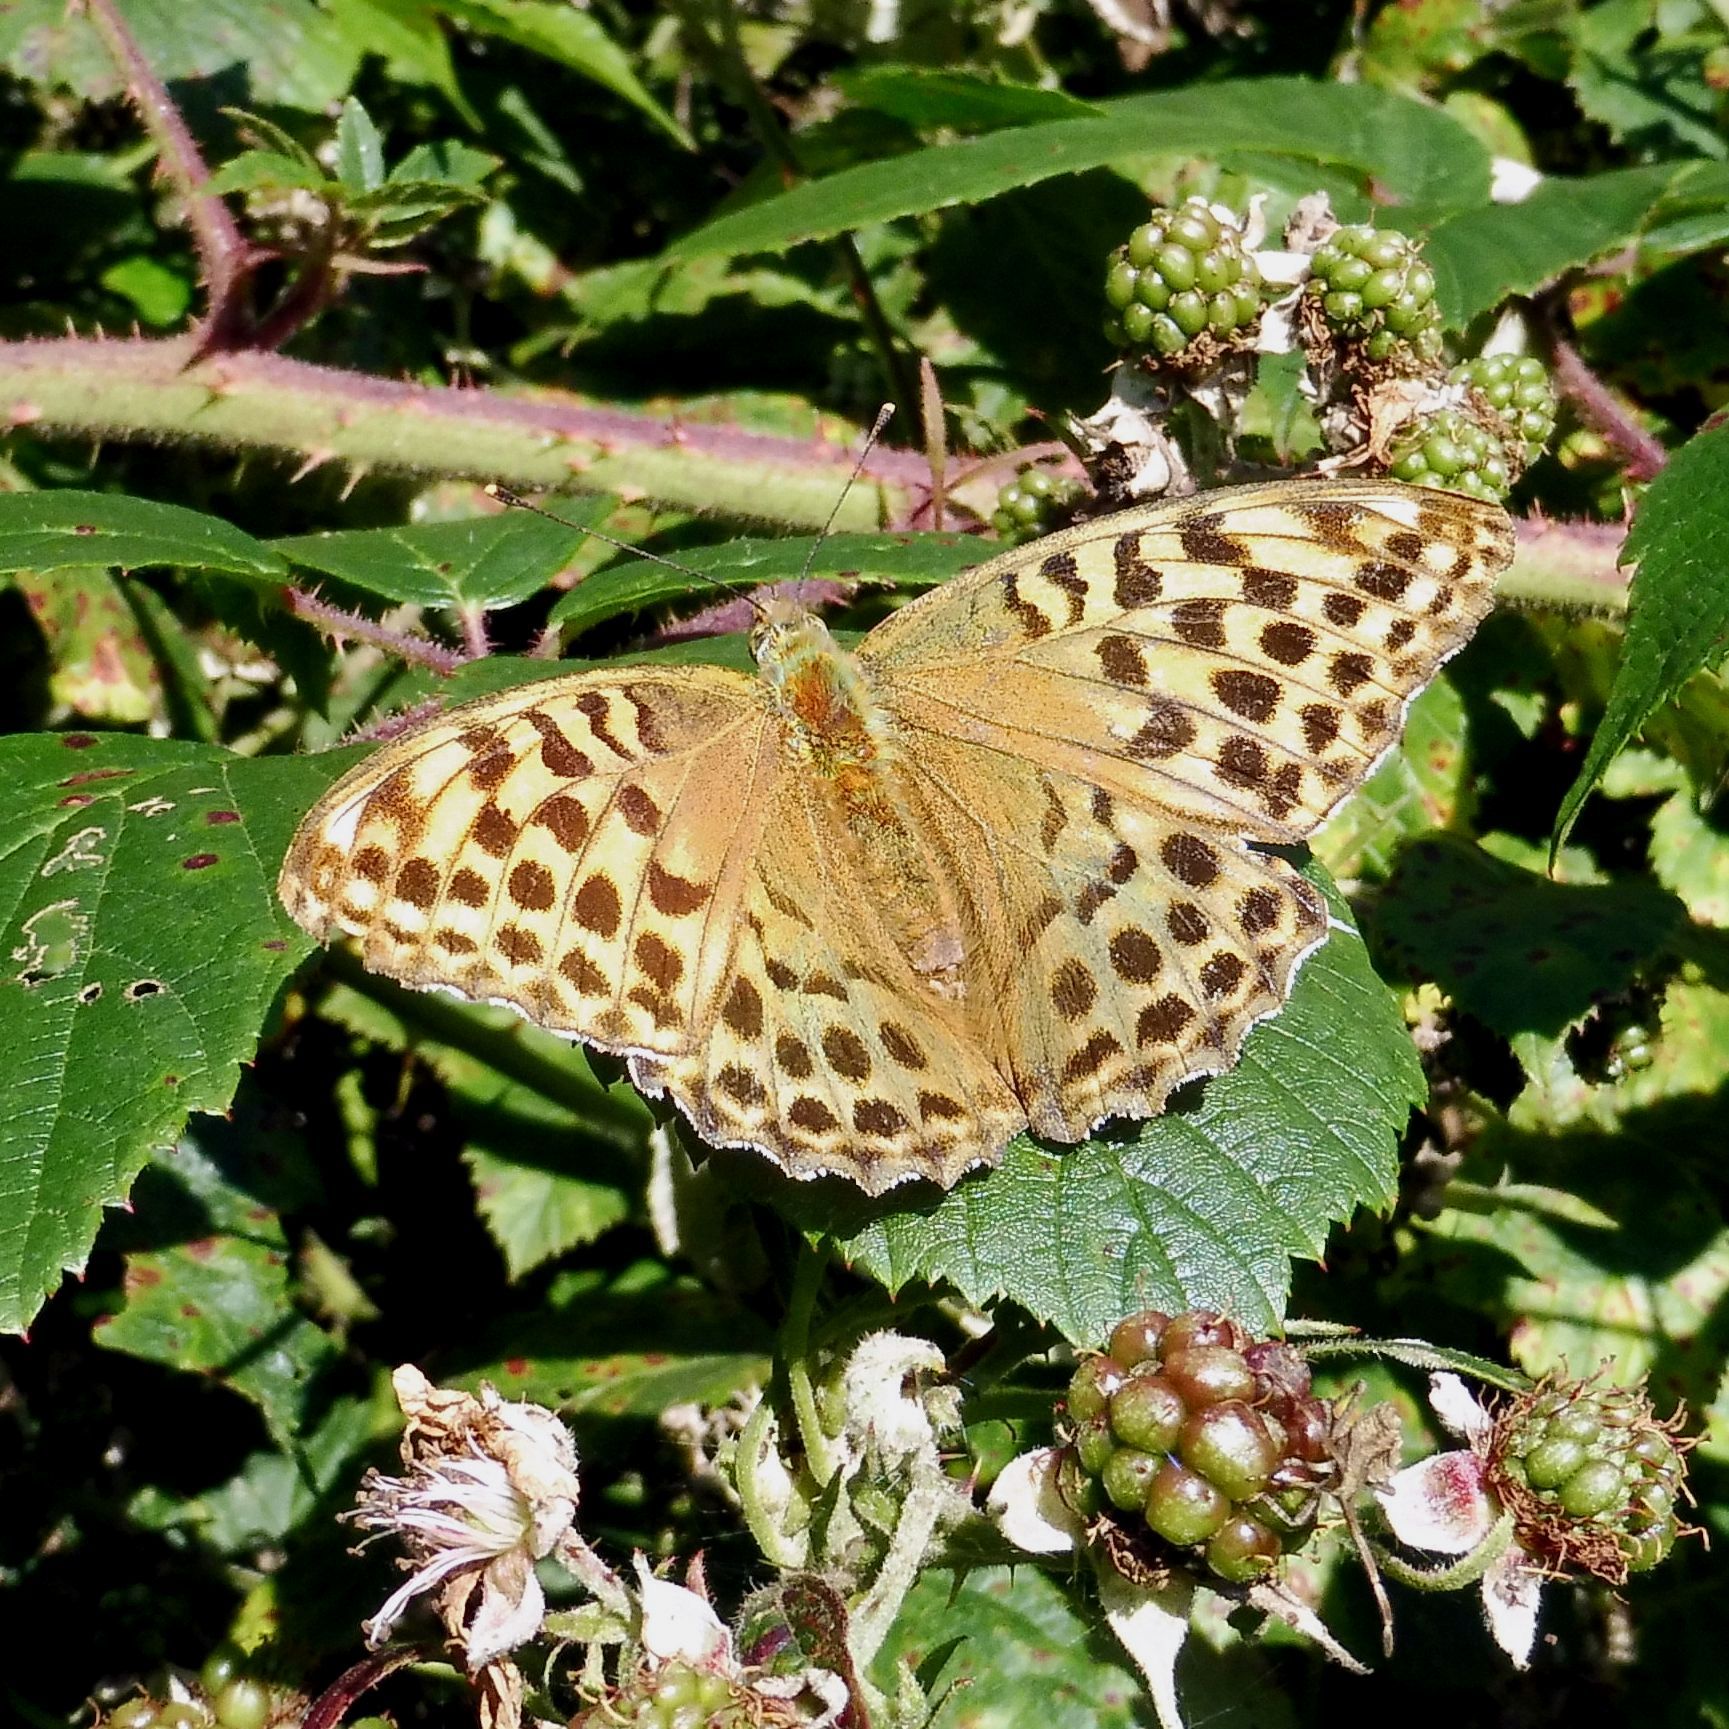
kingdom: Animalia
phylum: Arthropoda
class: Insecta
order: Lepidoptera
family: Nymphalidae
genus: Argynnis
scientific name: Argynnis paphia
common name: Silver-washed fritillary
